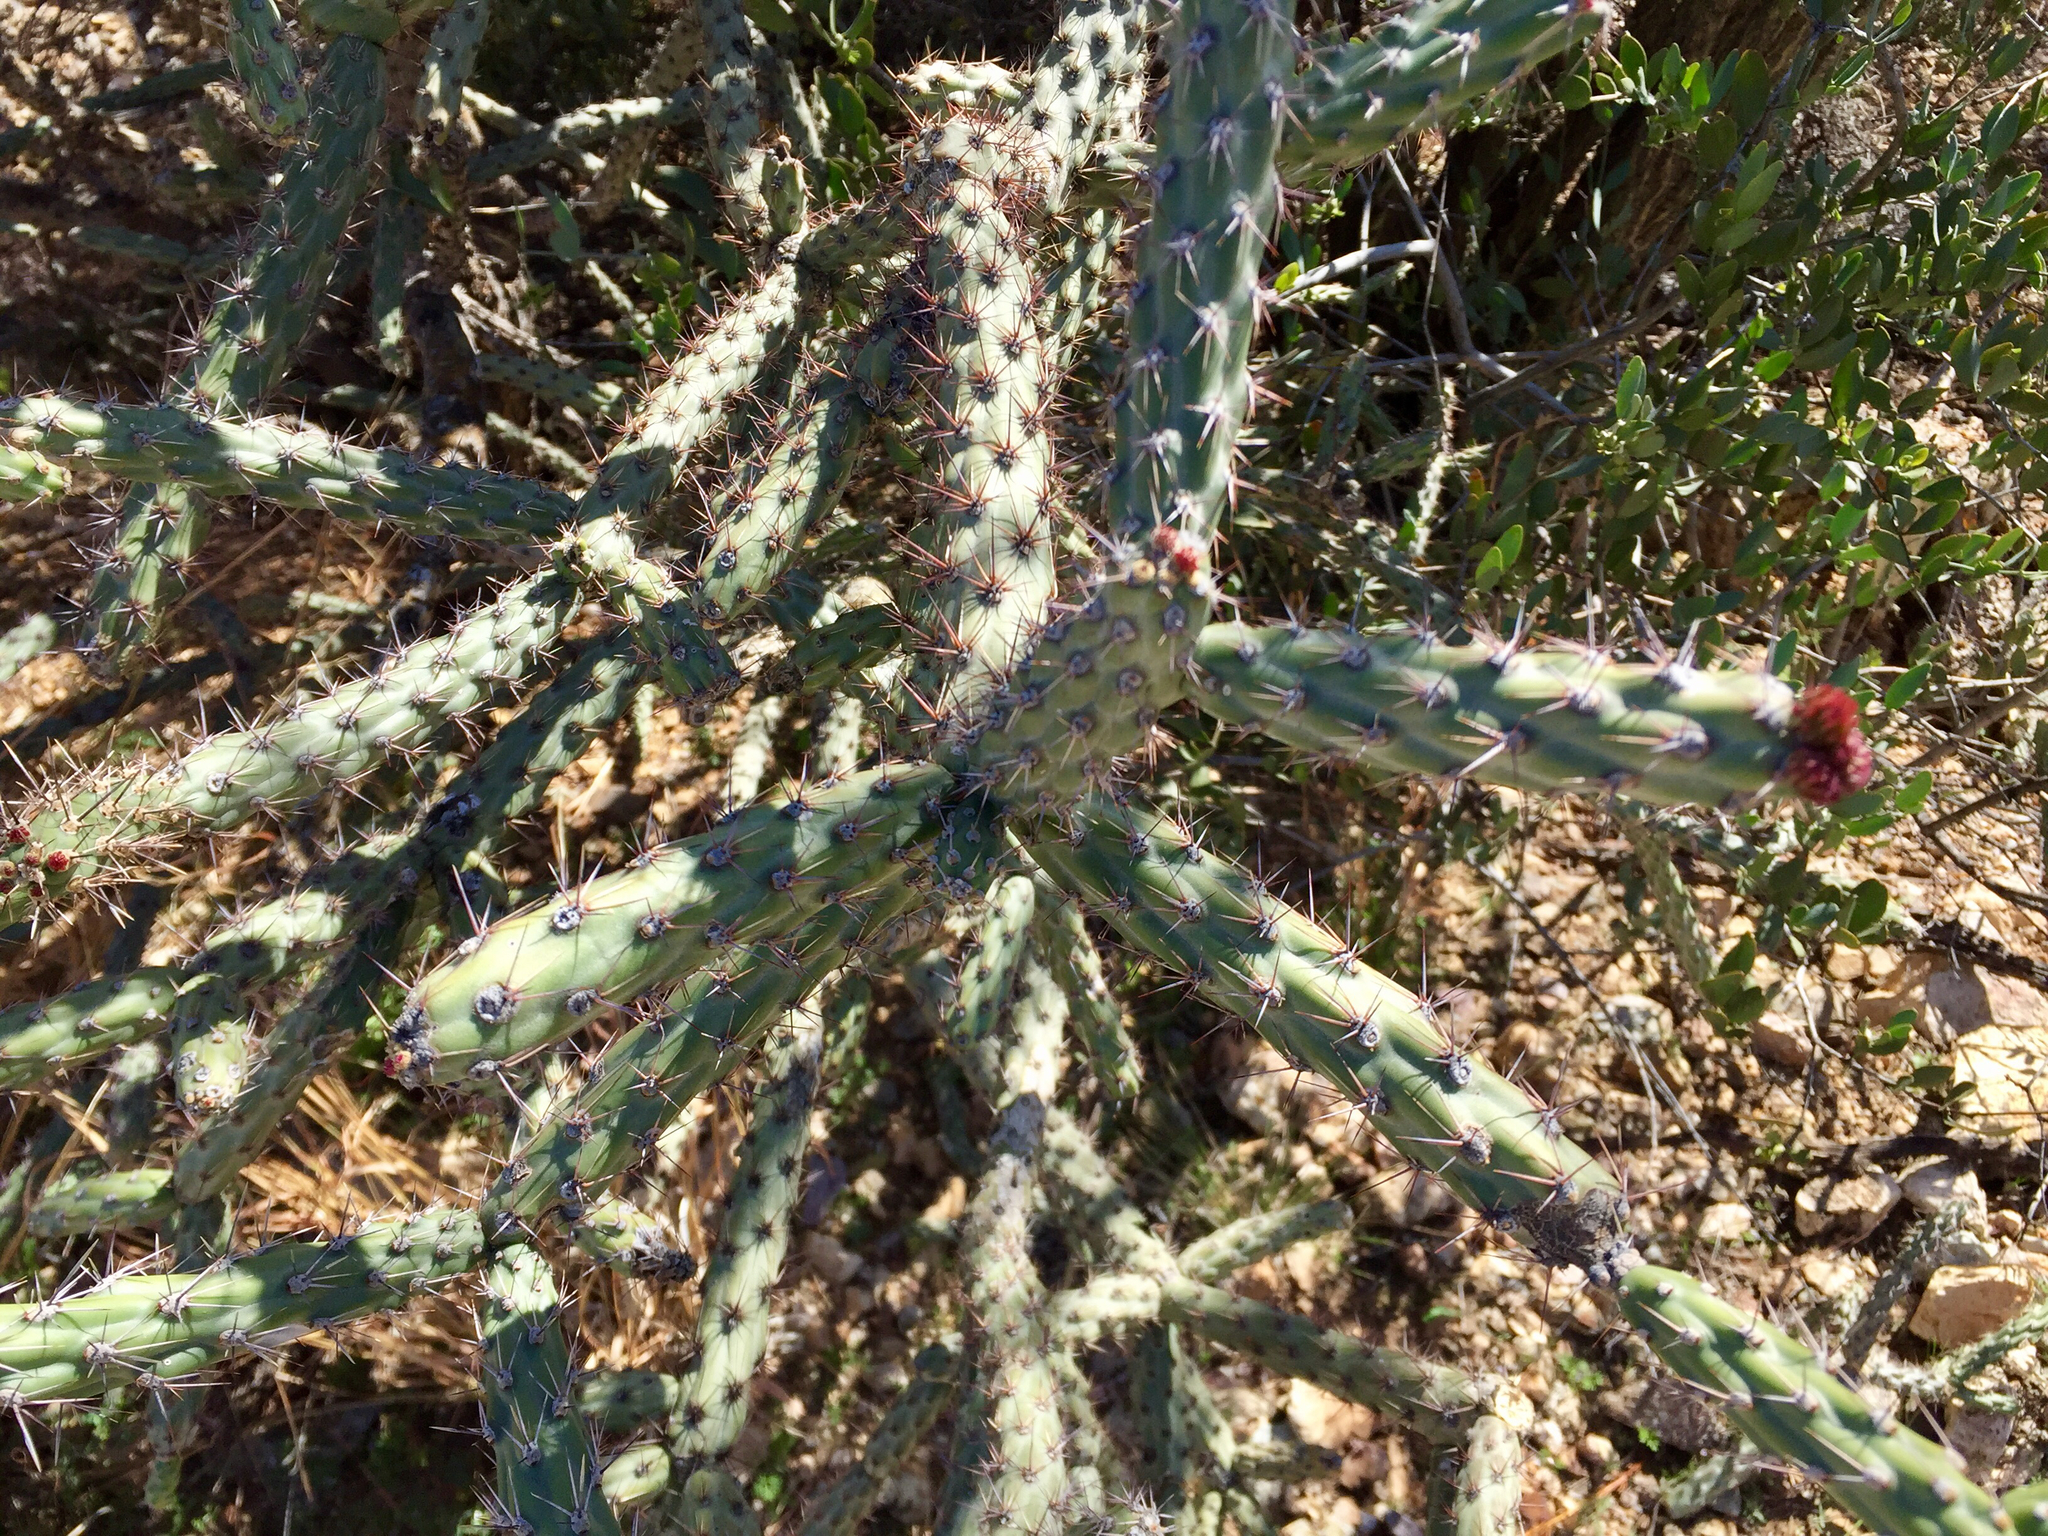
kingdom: Plantae
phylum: Tracheophyta
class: Magnoliopsida
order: Caryophyllales
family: Cactaceae
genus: Cylindropuntia
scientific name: Cylindropuntia acanthocarpa
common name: Buckhorn cholla
